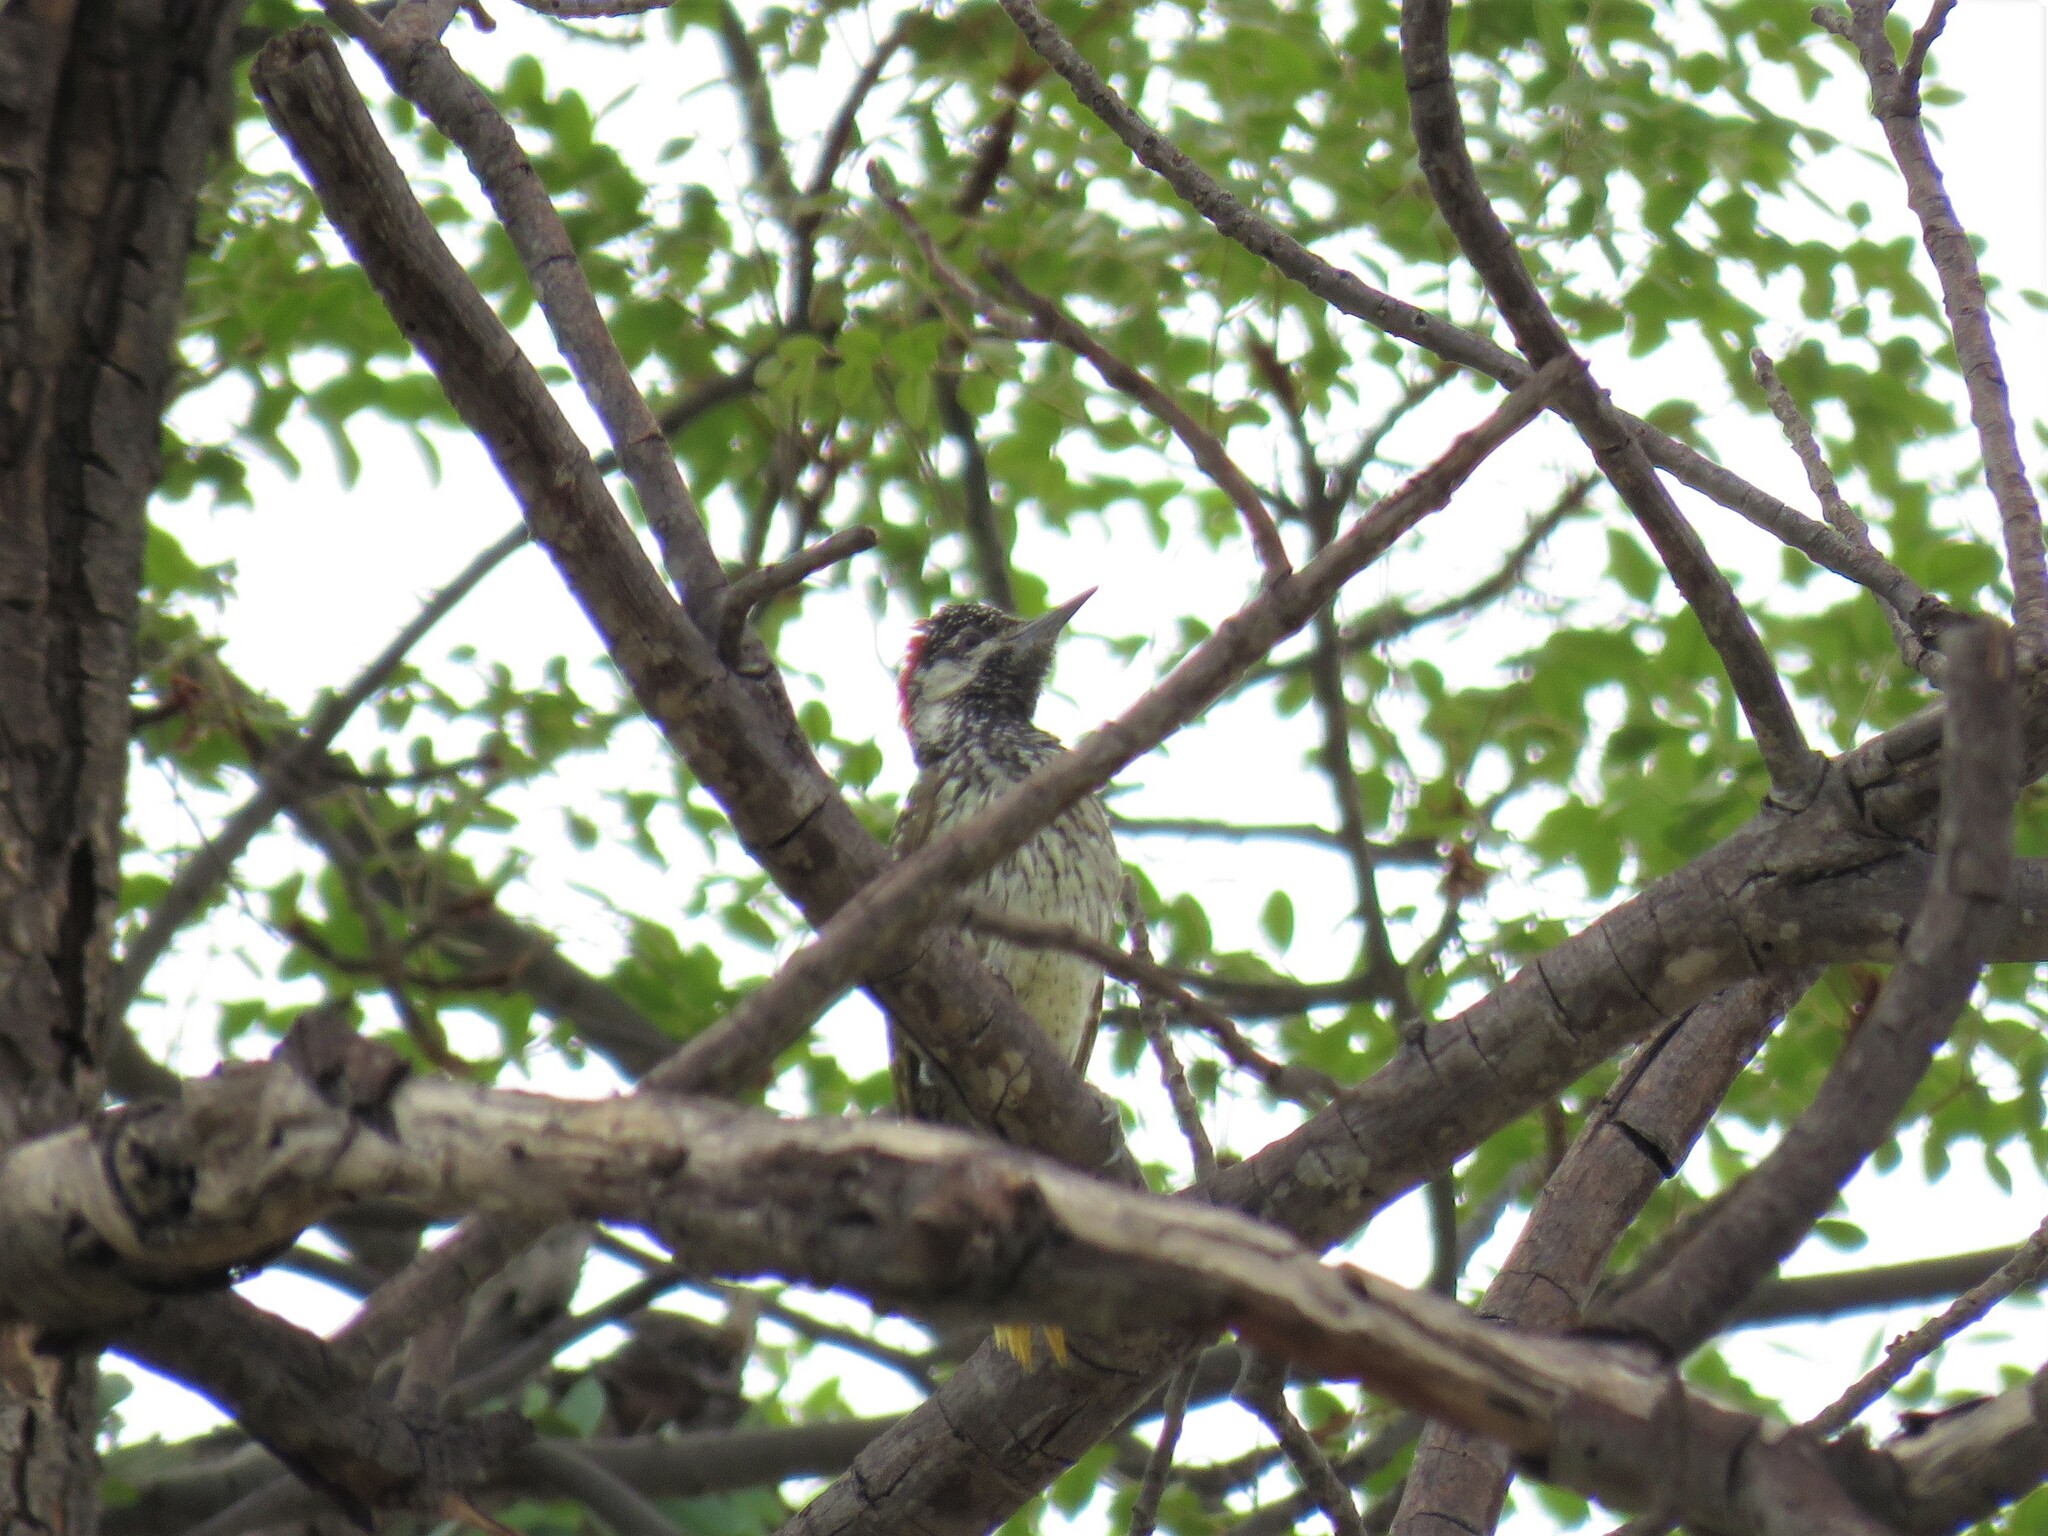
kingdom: Animalia
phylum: Chordata
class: Aves
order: Piciformes
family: Picidae
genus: Campethera
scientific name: Campethera abingoni
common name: Golden-tailed woodpecker
